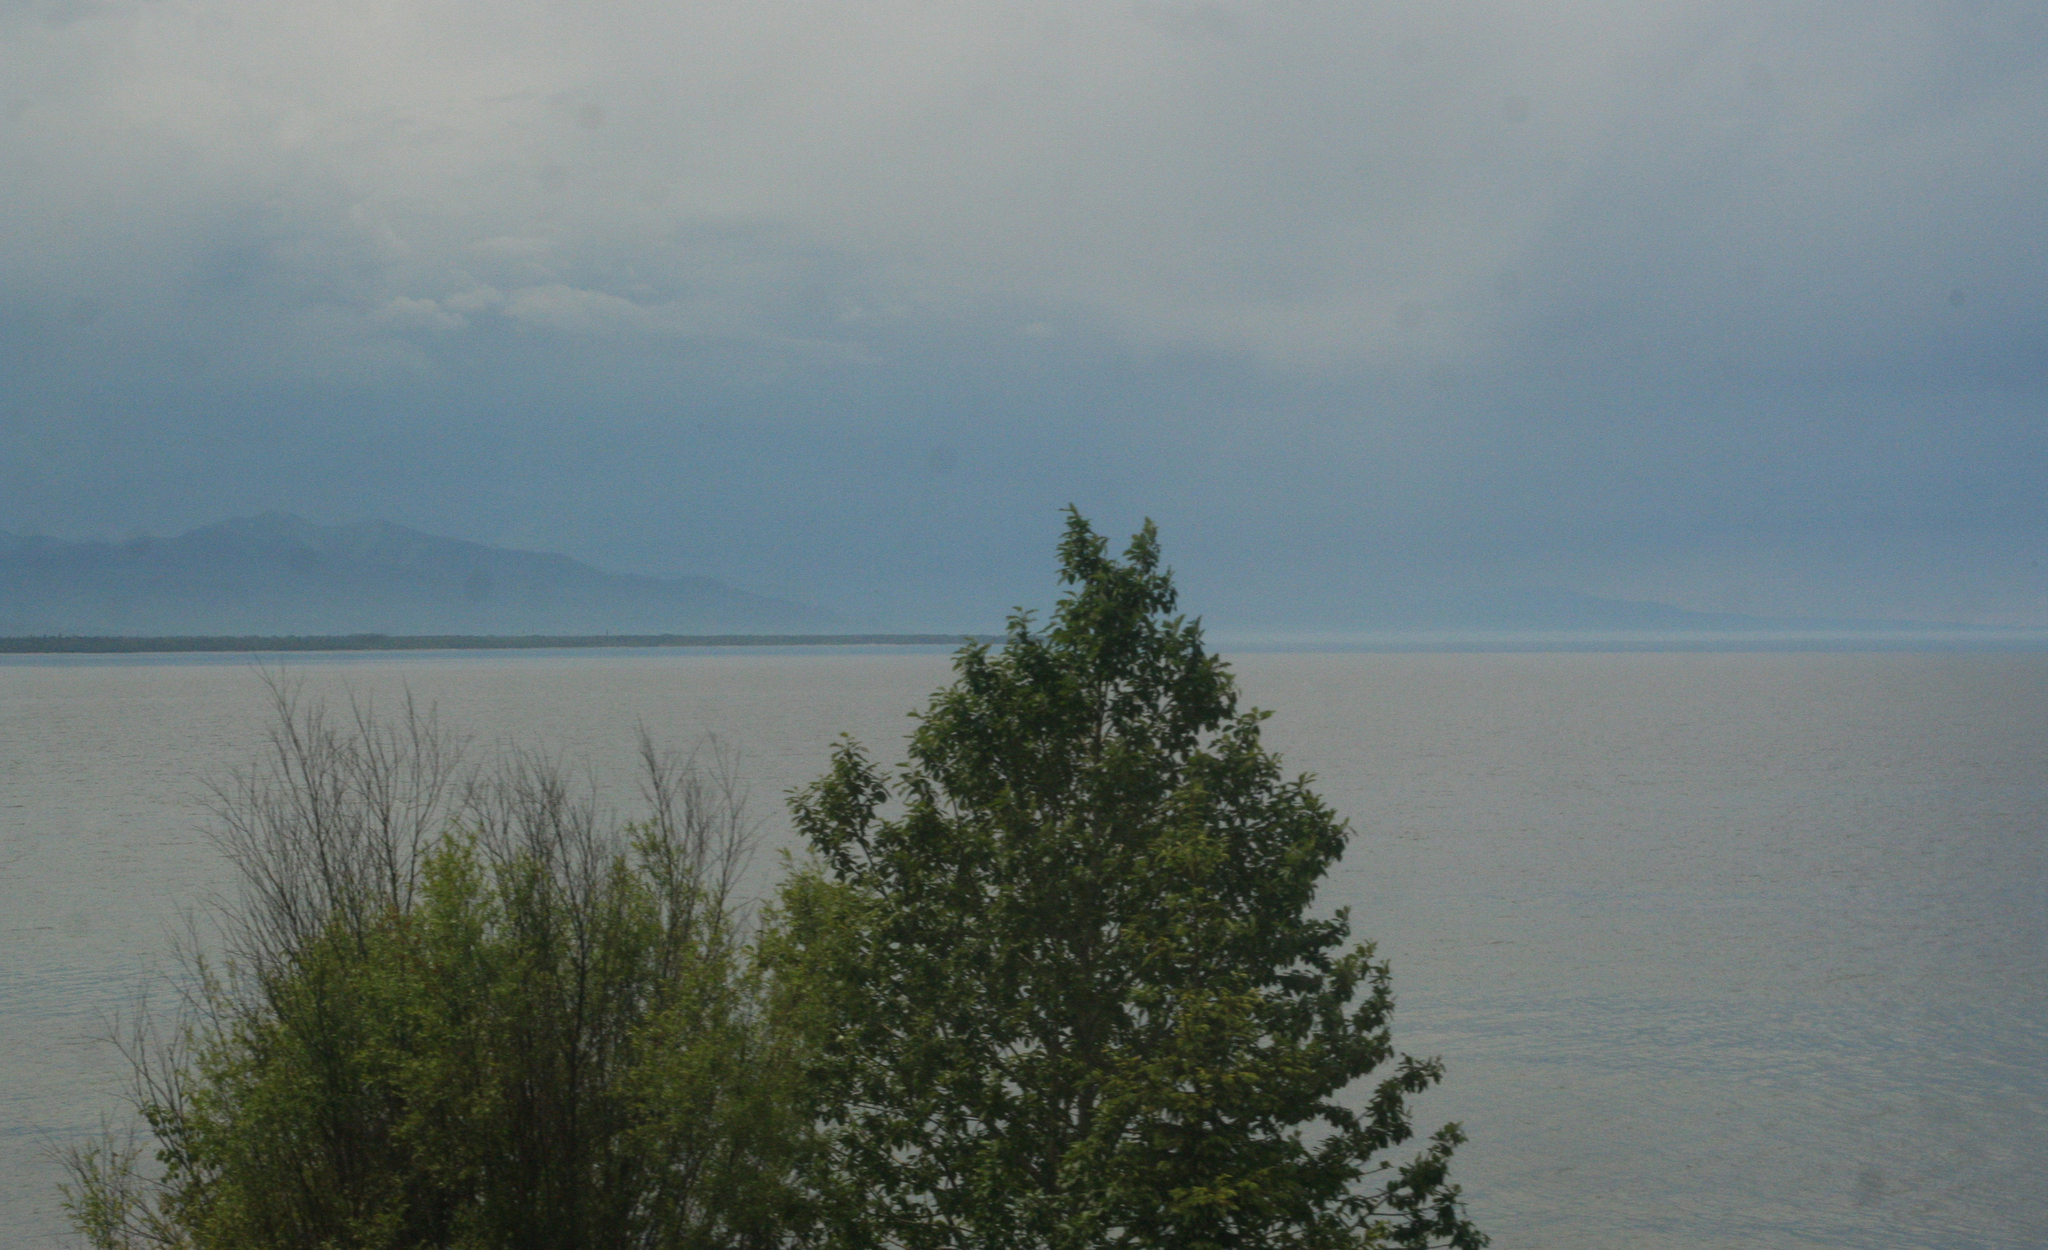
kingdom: Plantae
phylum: Tracheophyta
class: Magnoliopsida
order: Malpighiales
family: Salicaceae
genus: Populus
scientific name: Populus suaveolens
